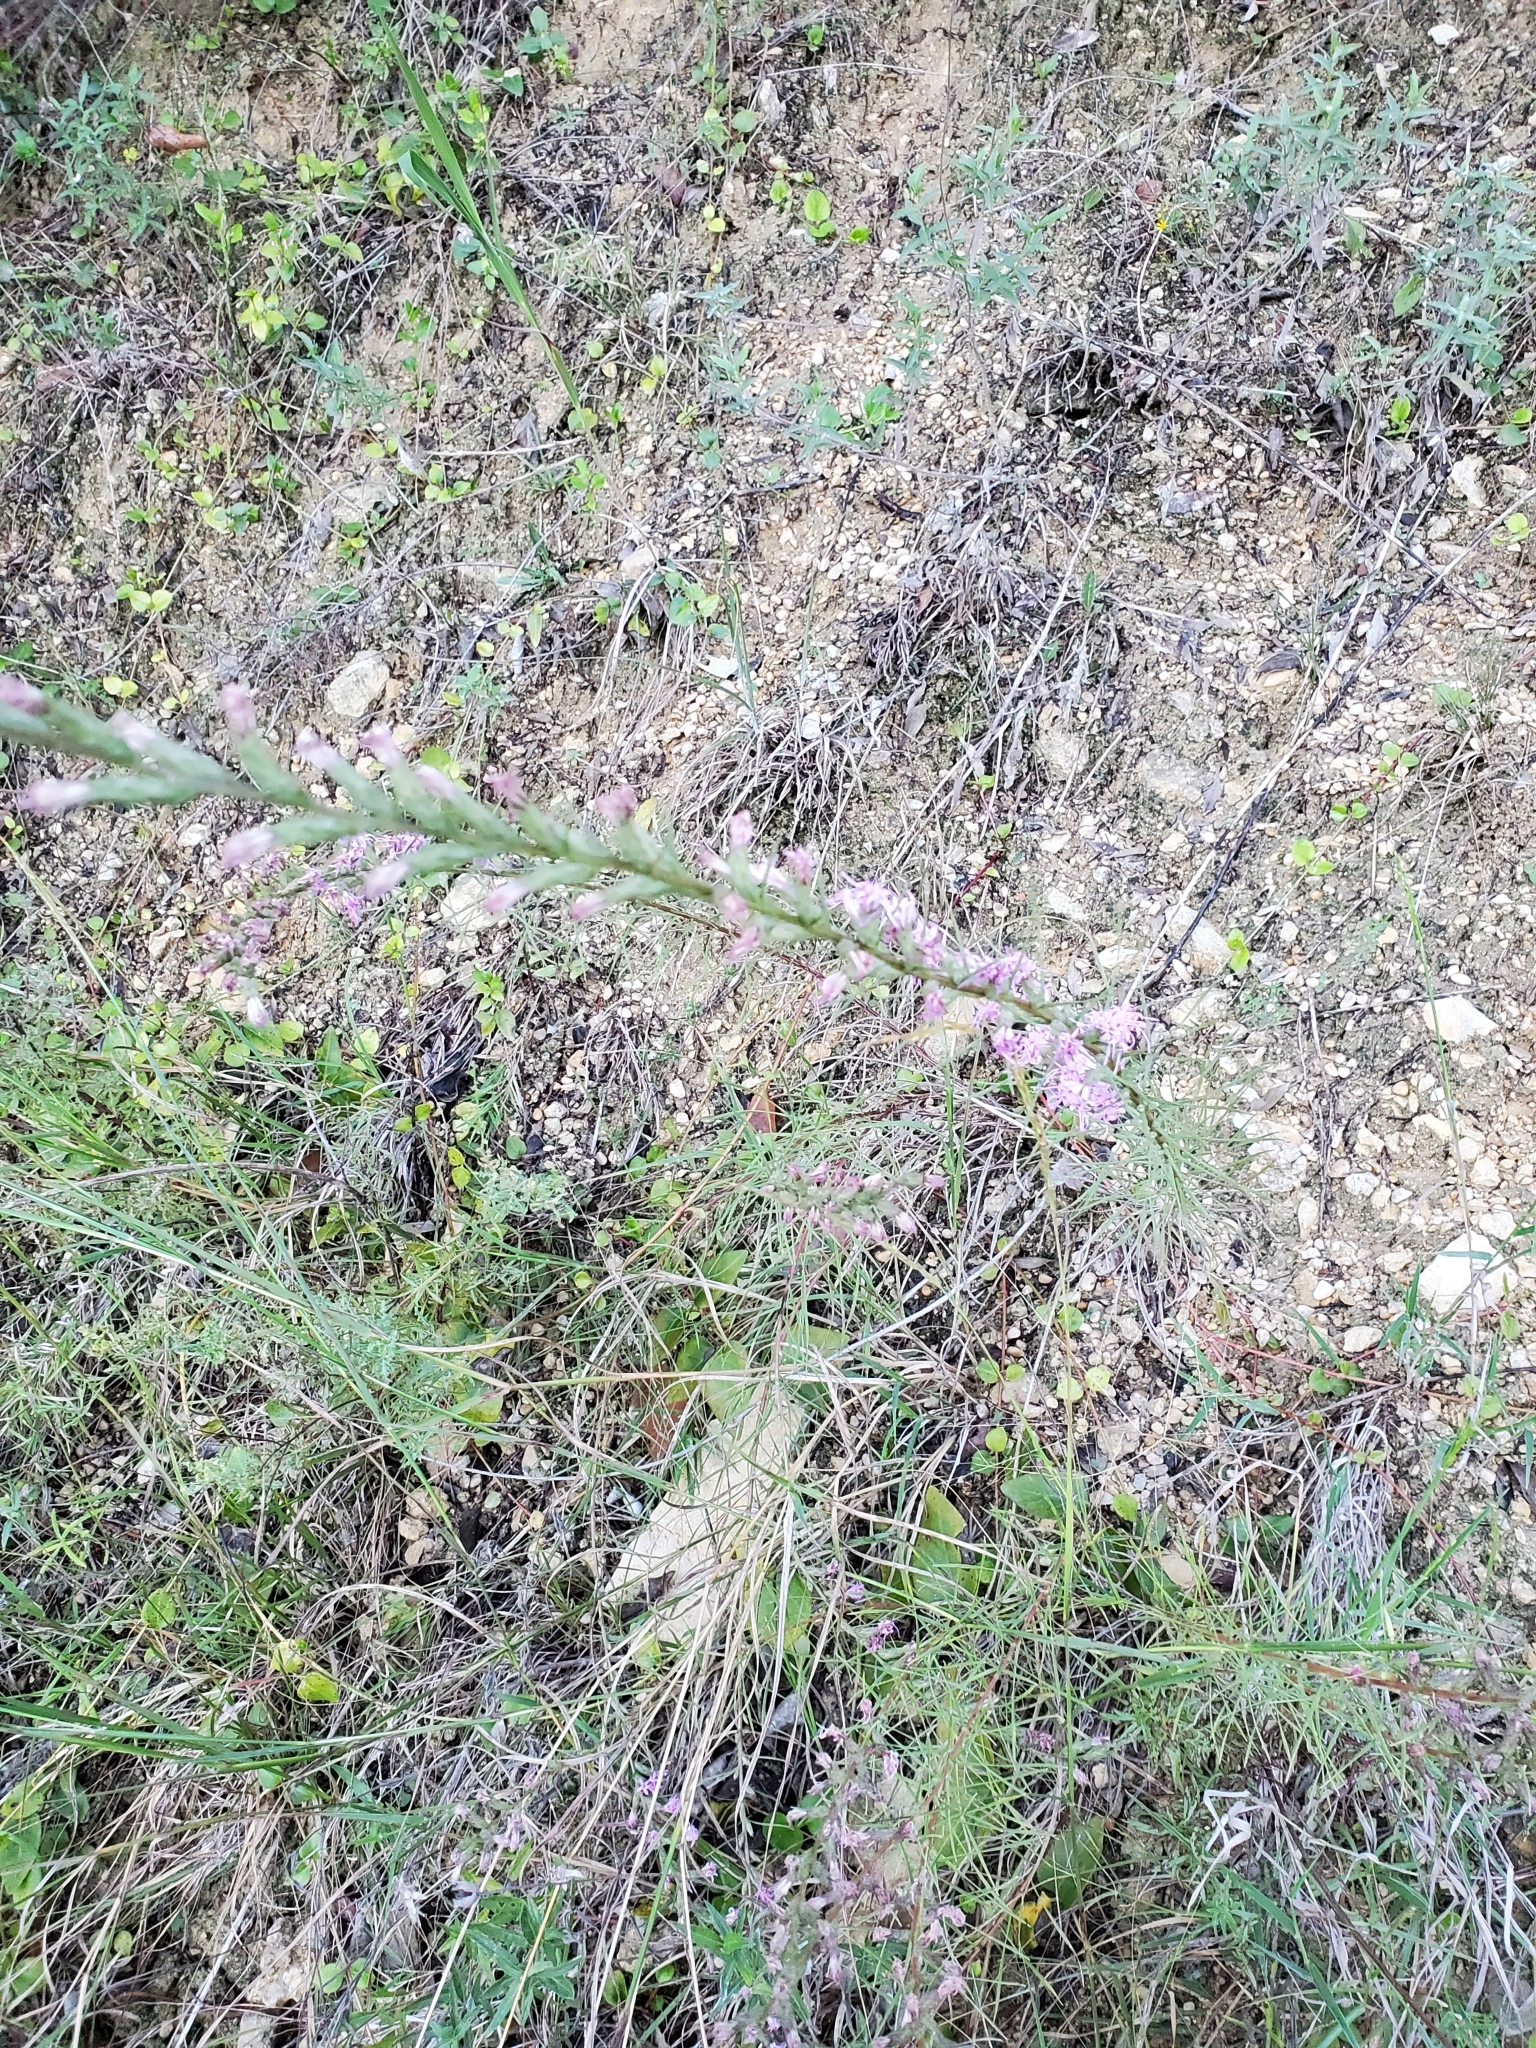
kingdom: Plantae
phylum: Tracheophyta
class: Magnoliopsida
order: Asterales
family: Asteraceae
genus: Liatris
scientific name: Liatris punctata
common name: Dotted gayfeather
